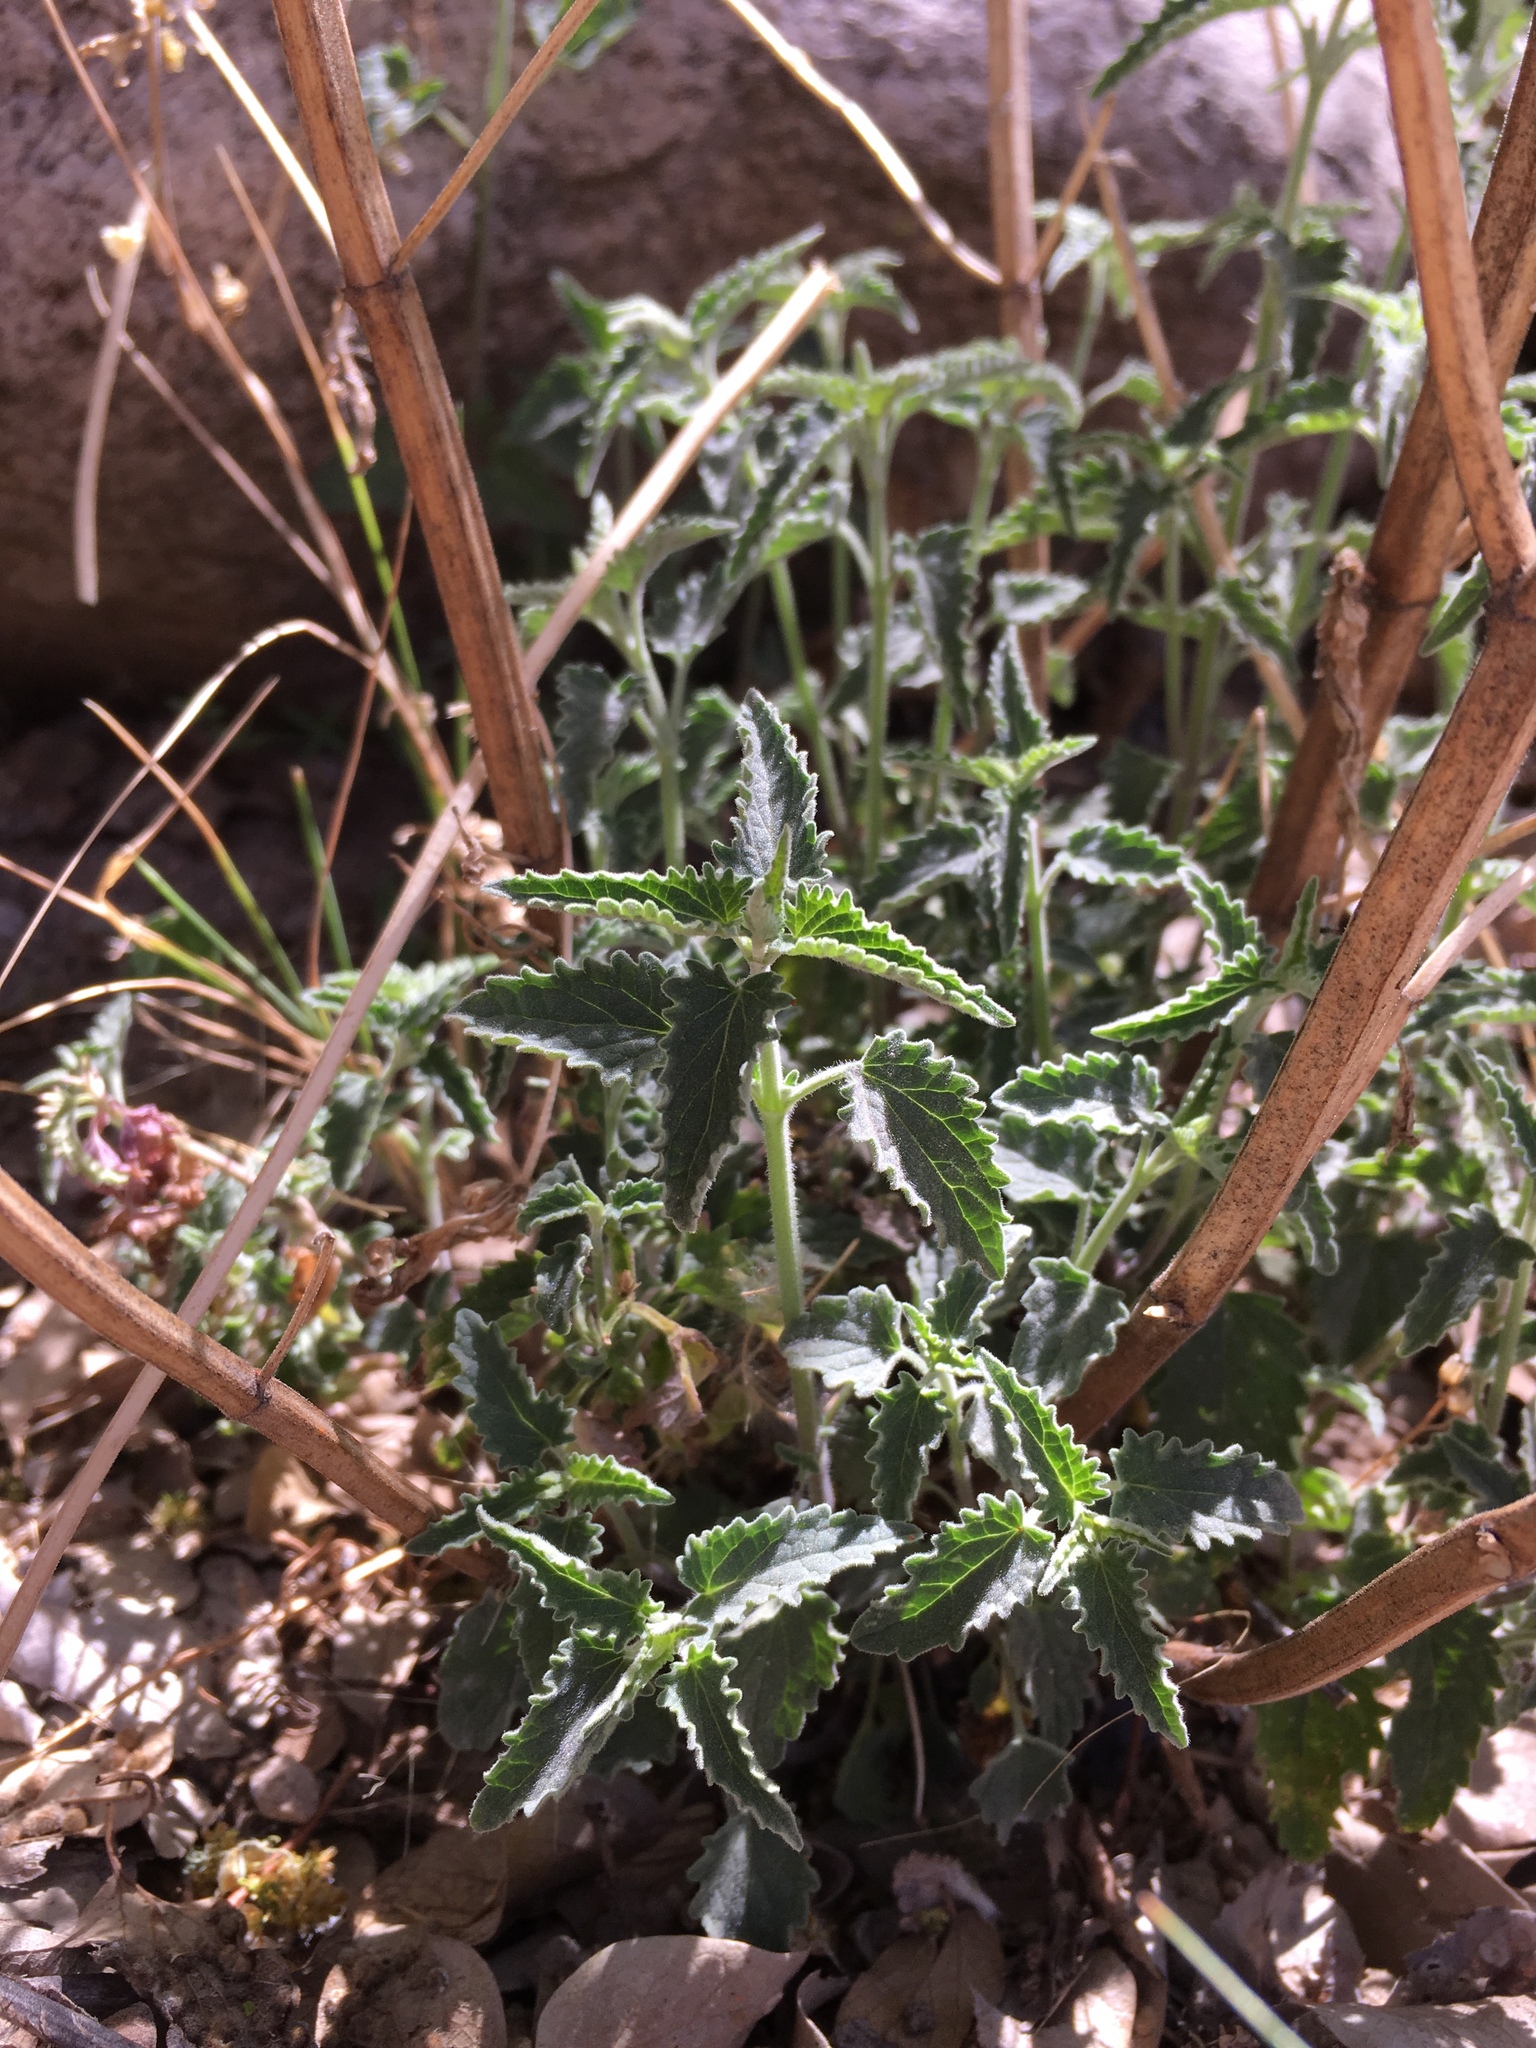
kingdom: Plantae
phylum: Tracheophyta
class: Magnoliopsida
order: Lamiales
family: Lamiaceae
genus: Agastache
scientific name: Agastache micrantha
